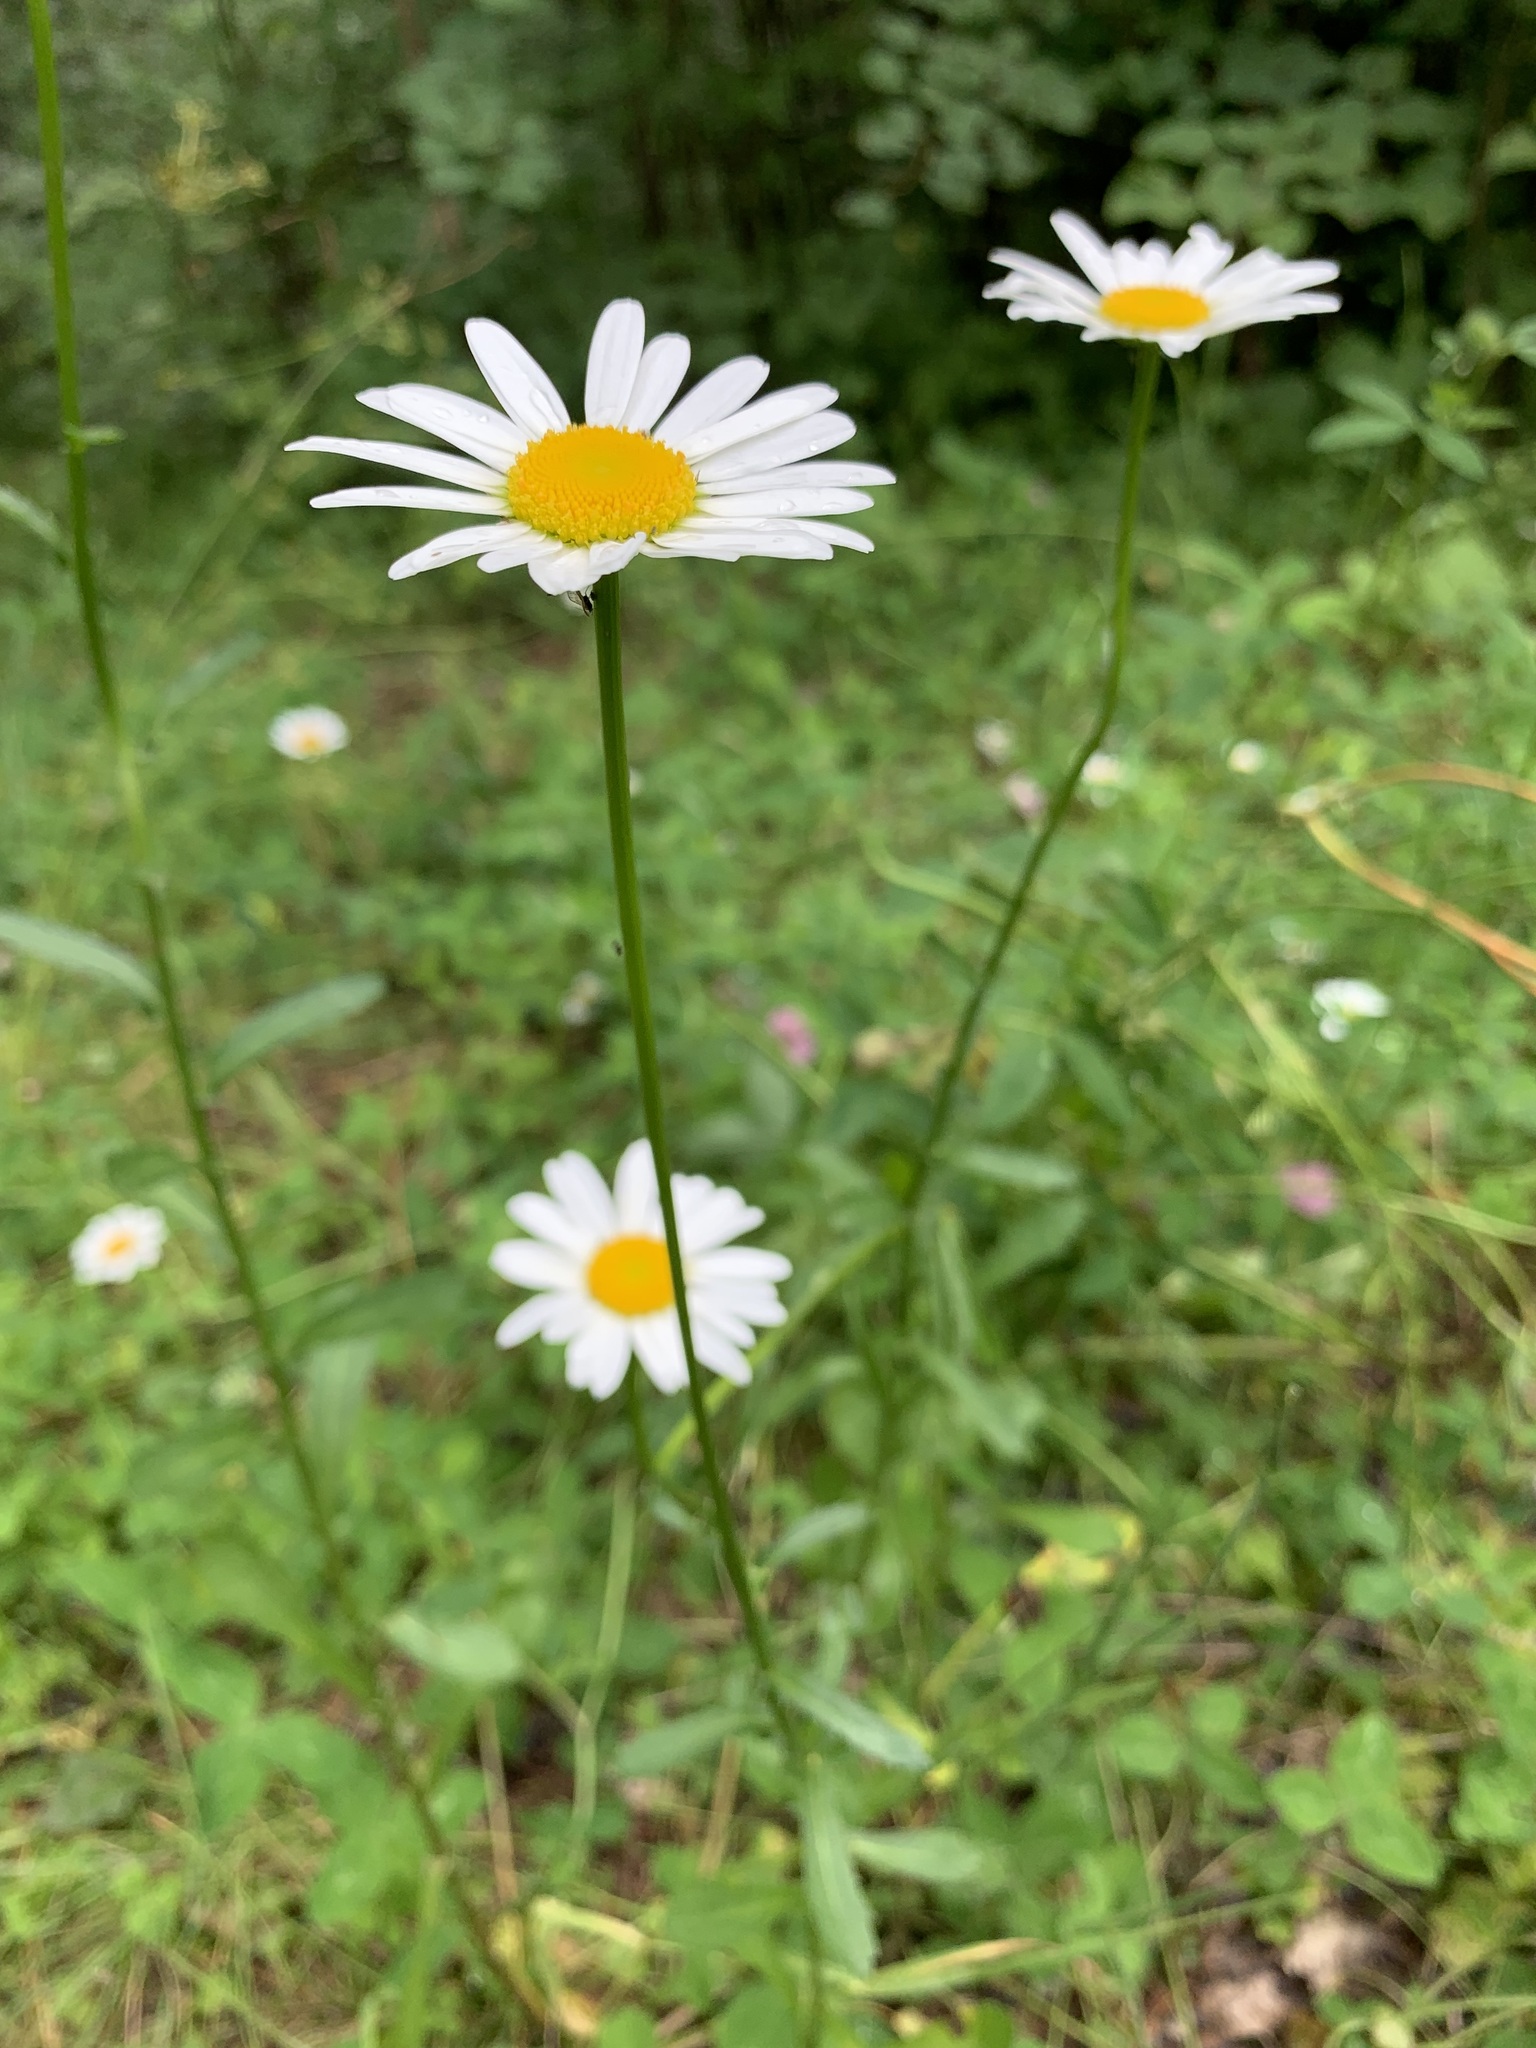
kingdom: Plantae
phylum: Tracheophyta
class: Magnoliopsida
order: Asterales
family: Asteraceae
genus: Leucanthemum
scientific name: Leucanthemum ircutianum
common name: Daisy
